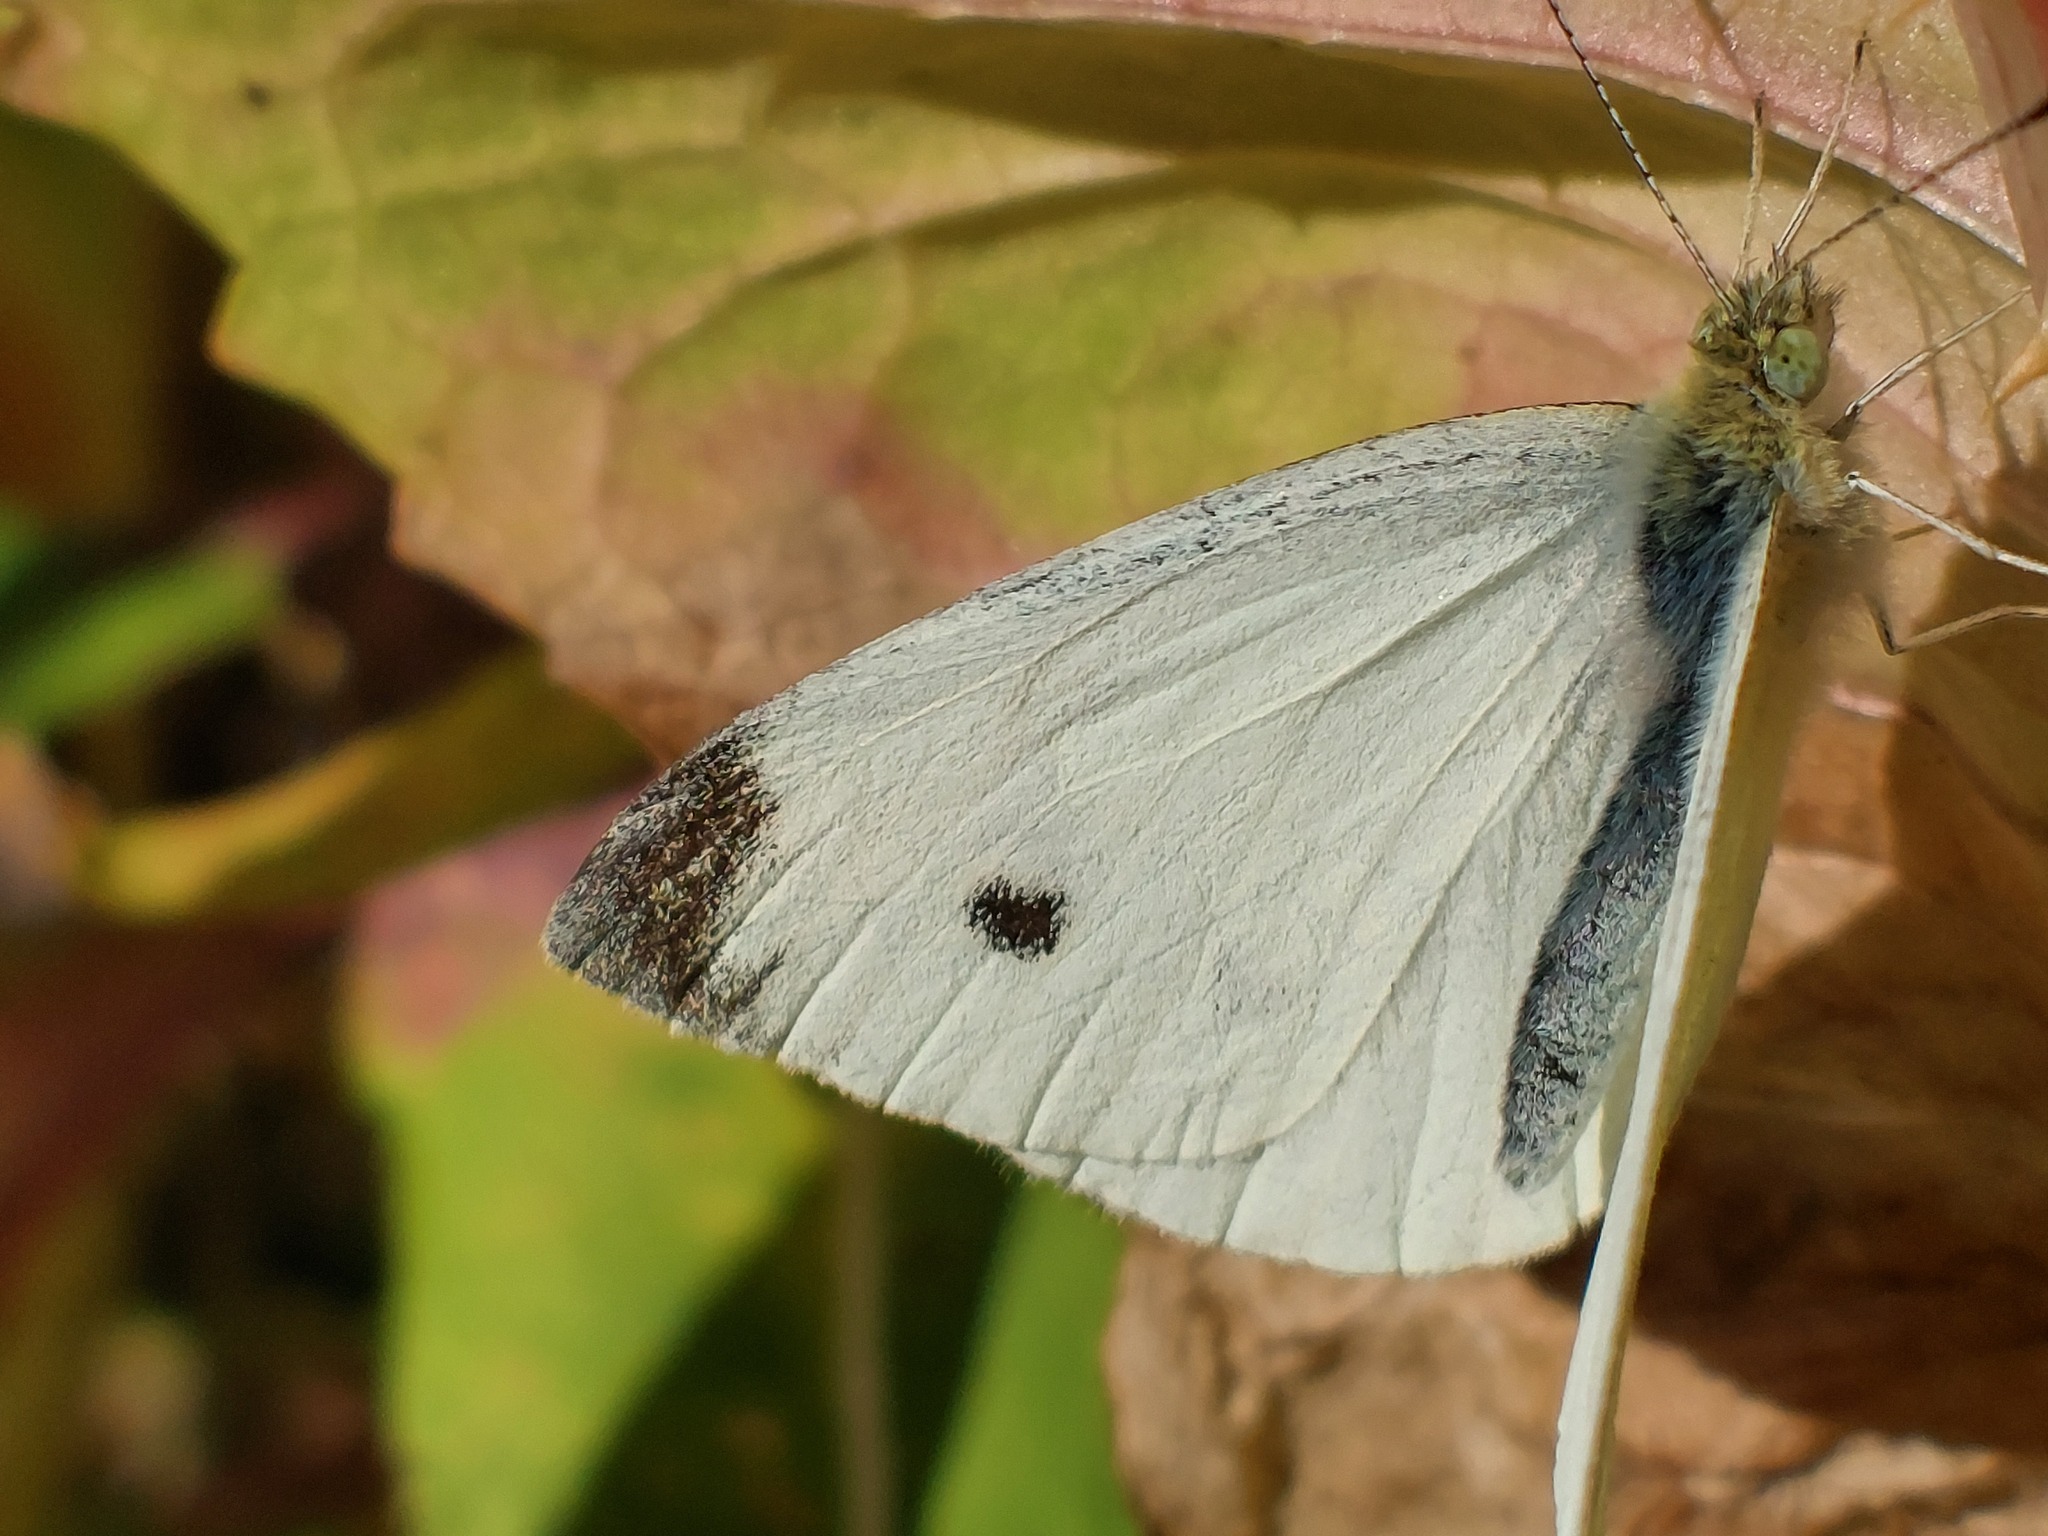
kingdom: Animalia
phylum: Arthropoda
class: Insecta
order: Lepidoptera
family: Pieridae
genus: Pieris
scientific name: Pieris rapae
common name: Small white
